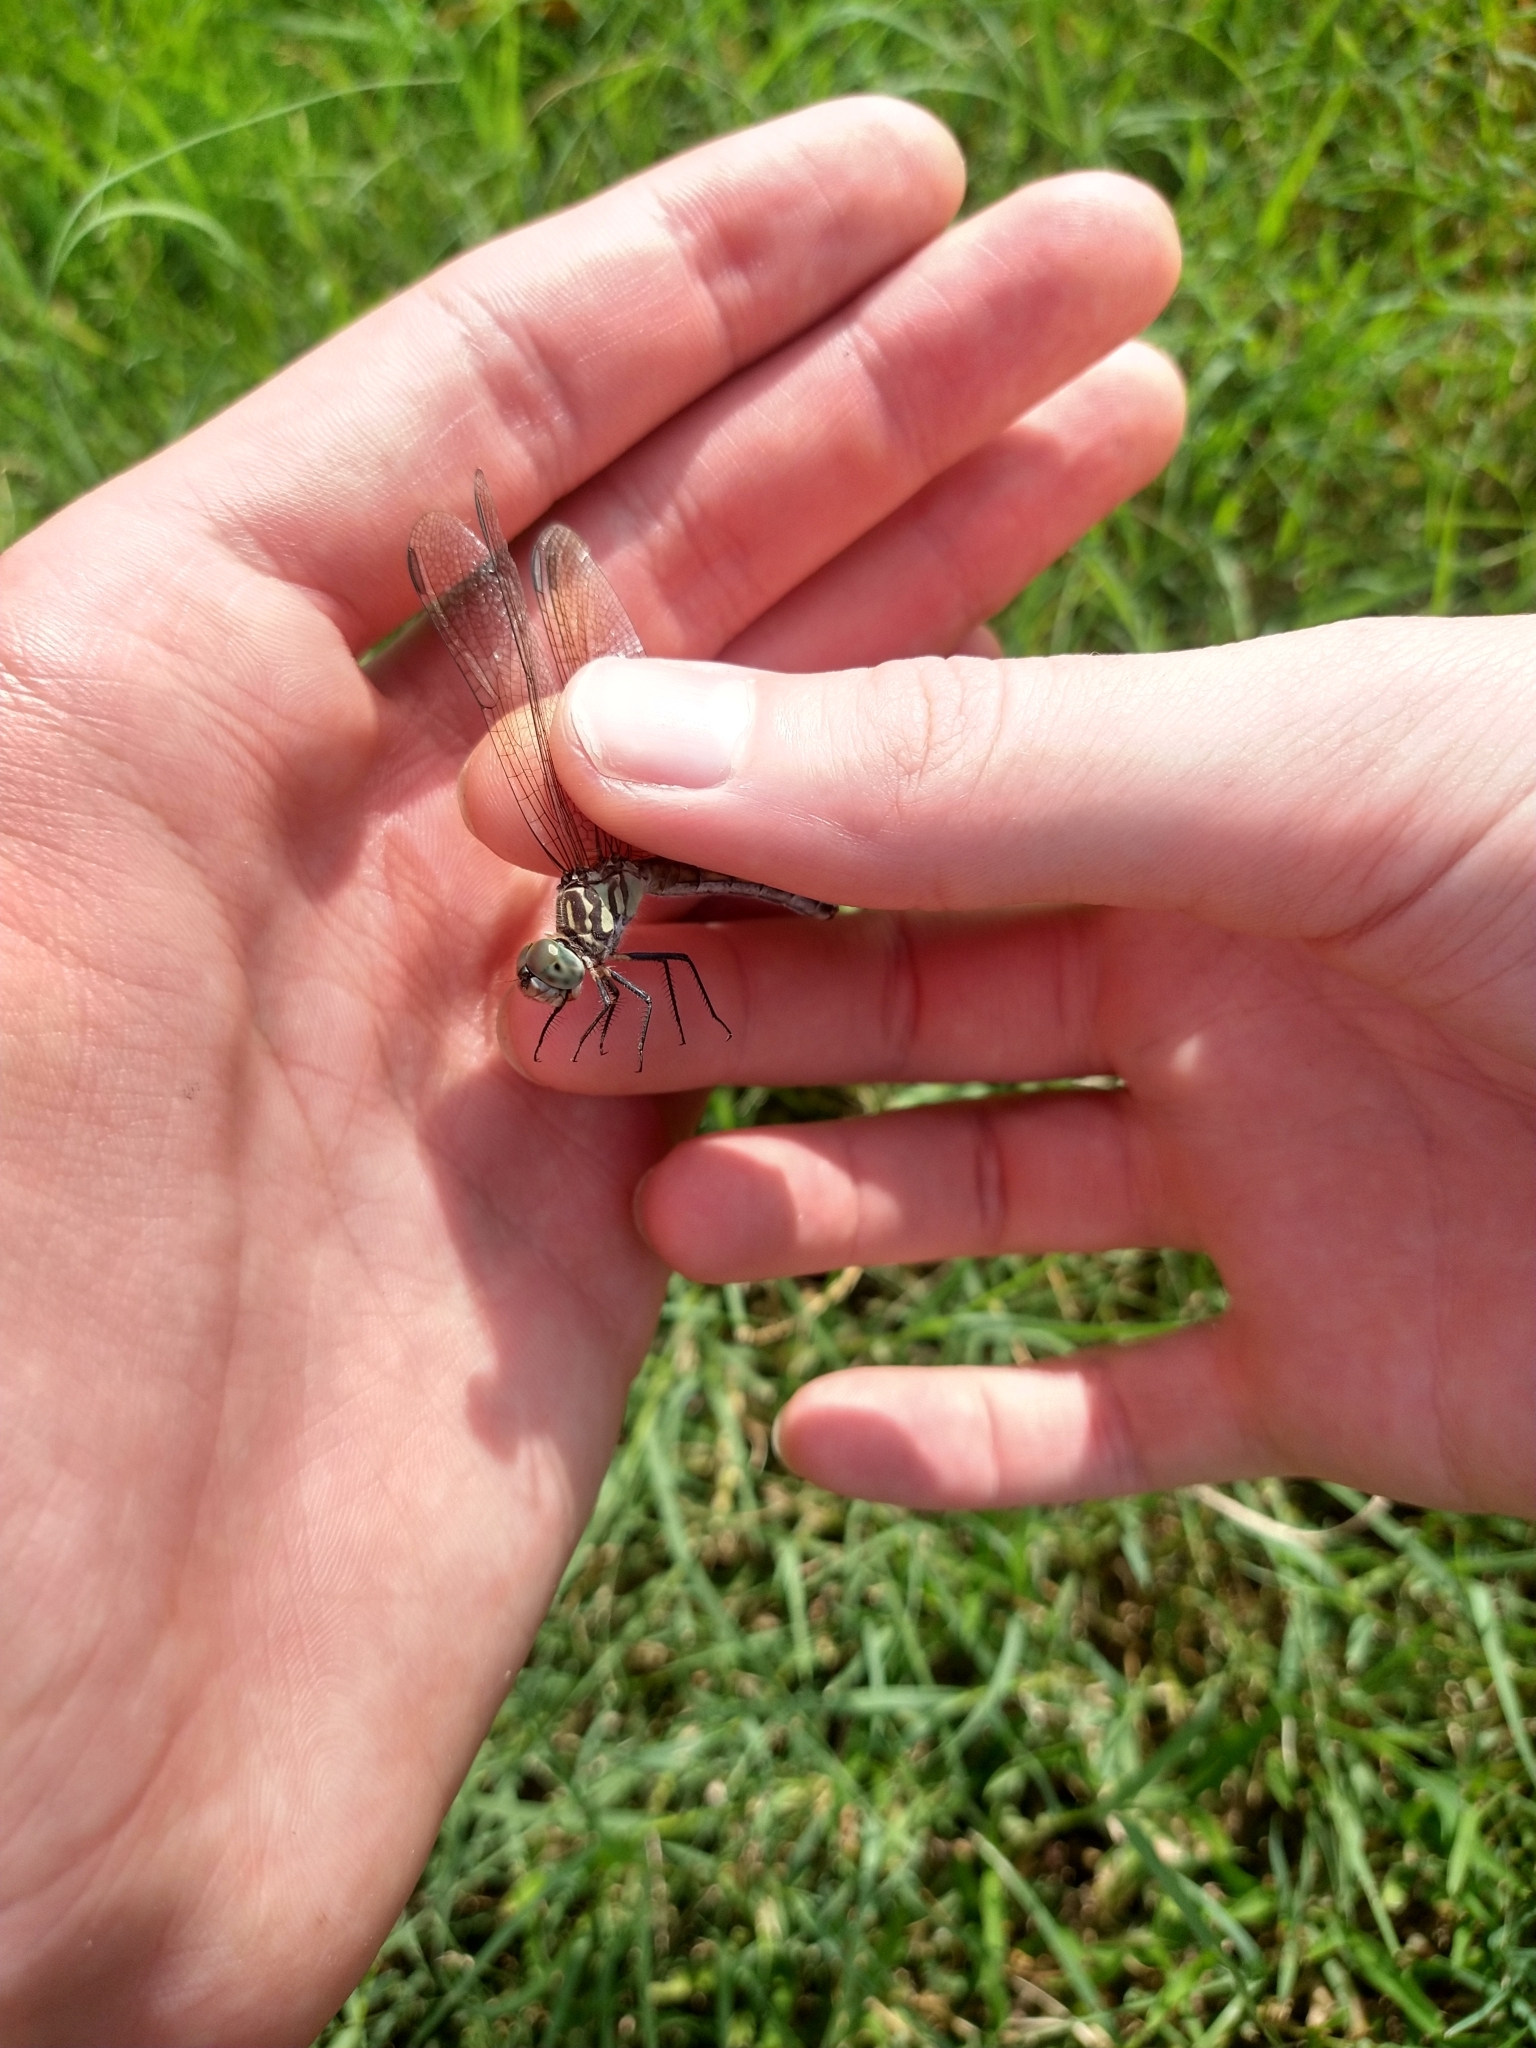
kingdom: Animalia
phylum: Arthropoda
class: Insecta
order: Odonata
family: Libellulidae
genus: Pachydiplax
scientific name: Pachydiplax longipennis
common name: Blue dasher
